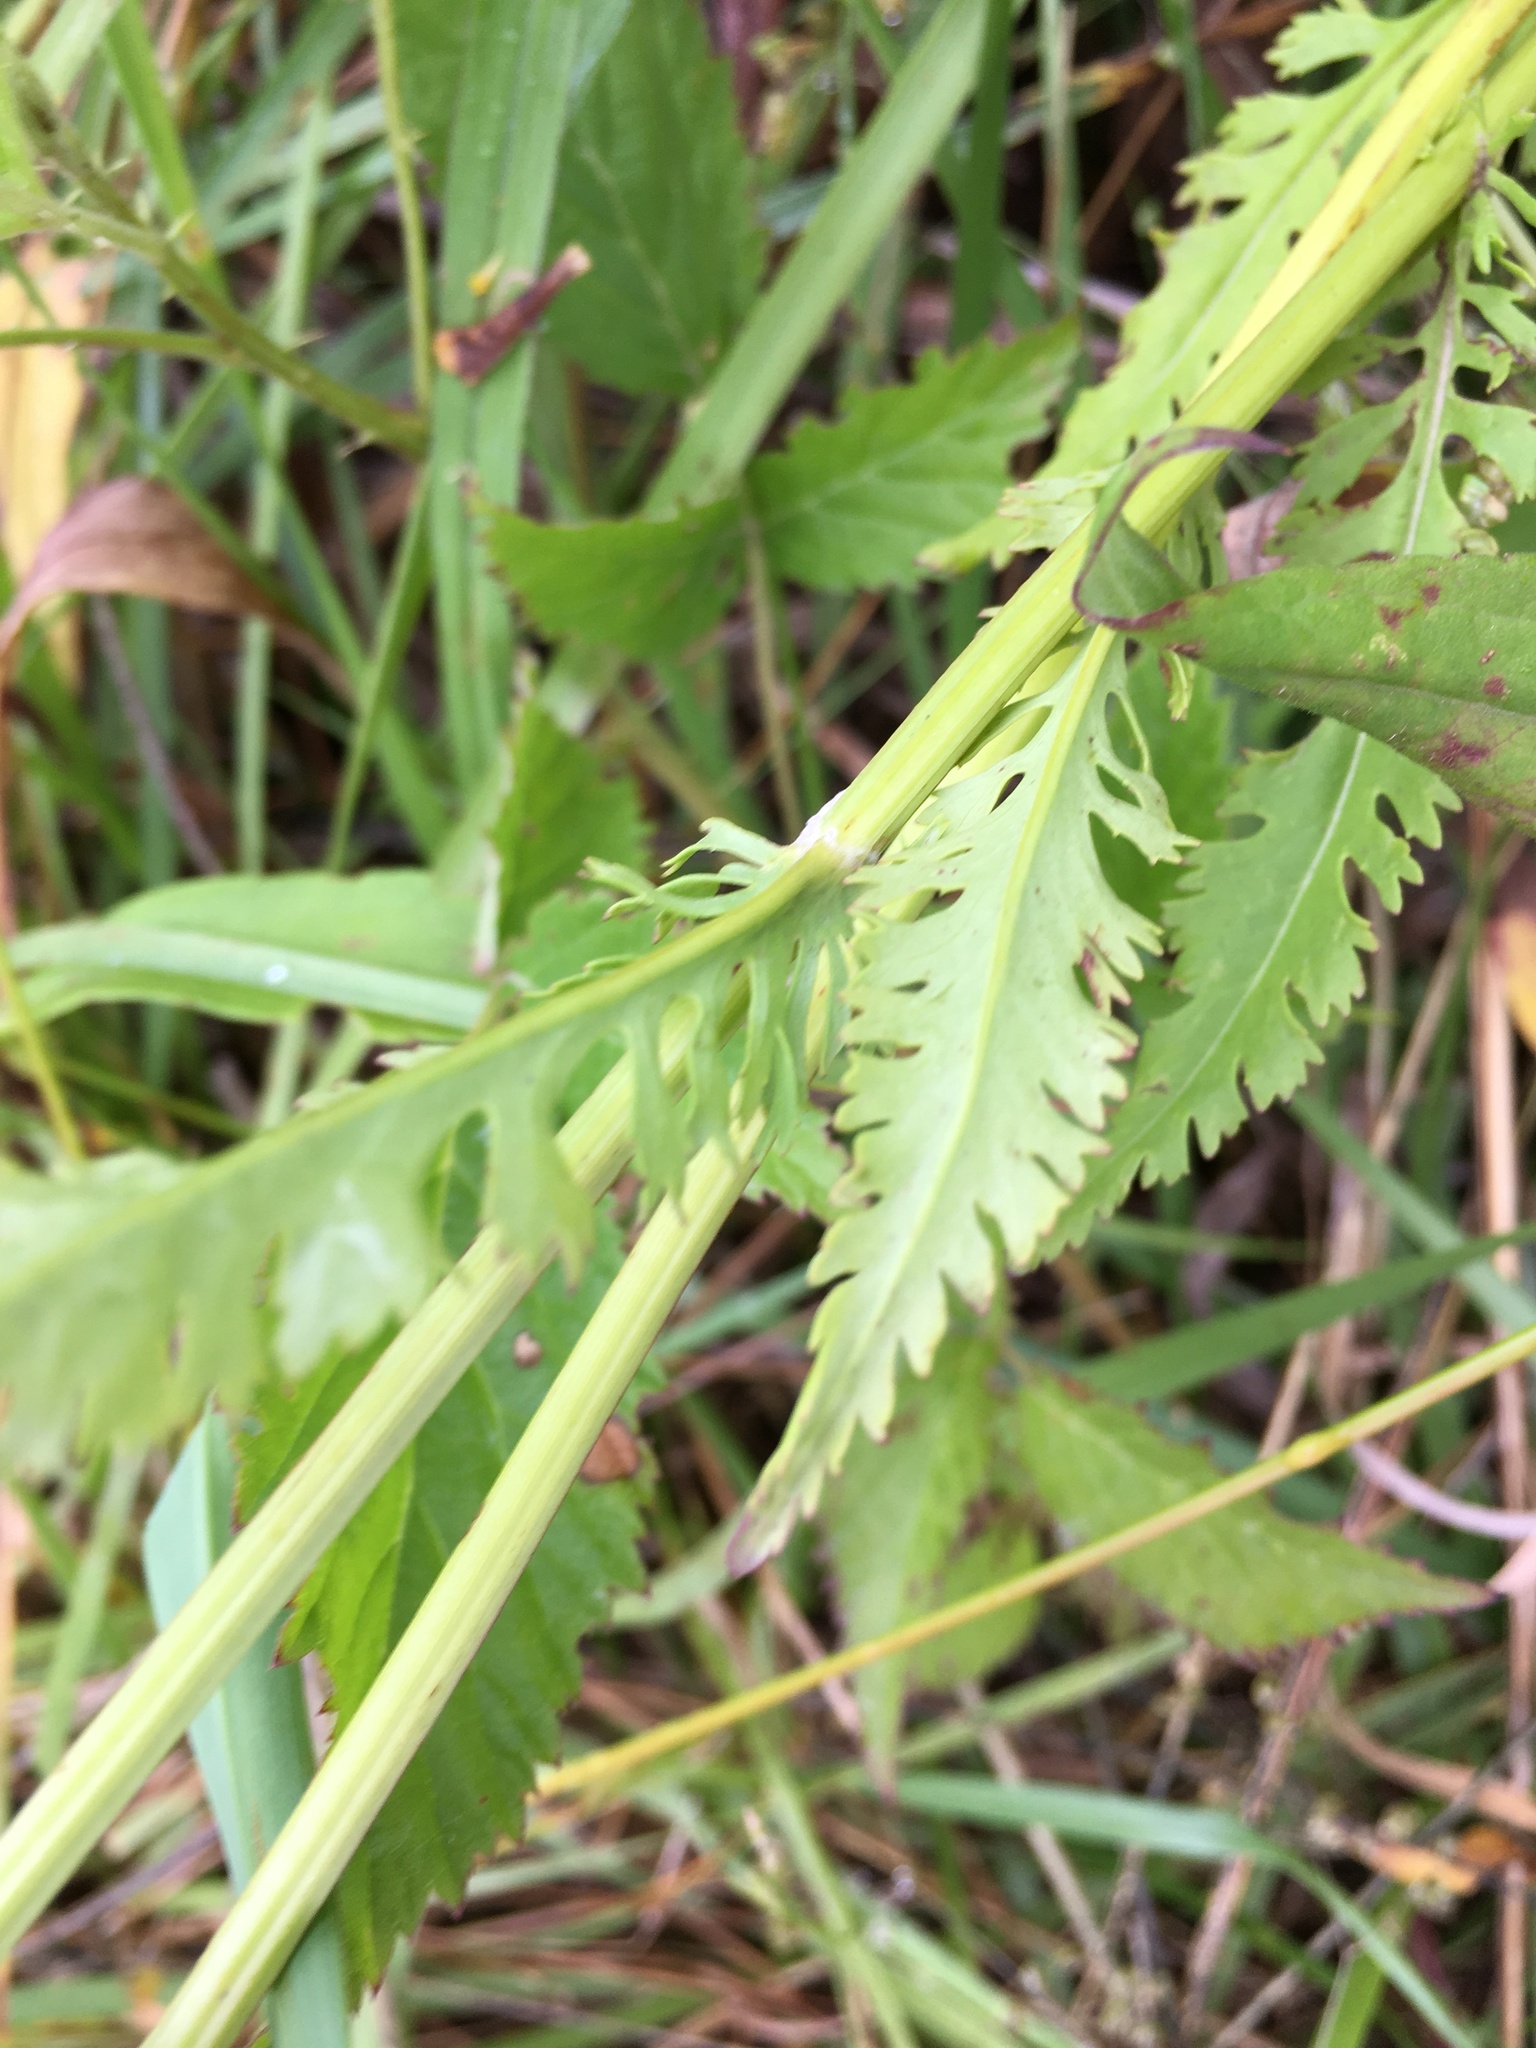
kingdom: Plantae
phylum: Tracheophyta
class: Magnoliopsida
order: Asterales
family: Asteraceae
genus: Packera
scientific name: Packera anonyma
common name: Small ragwort
